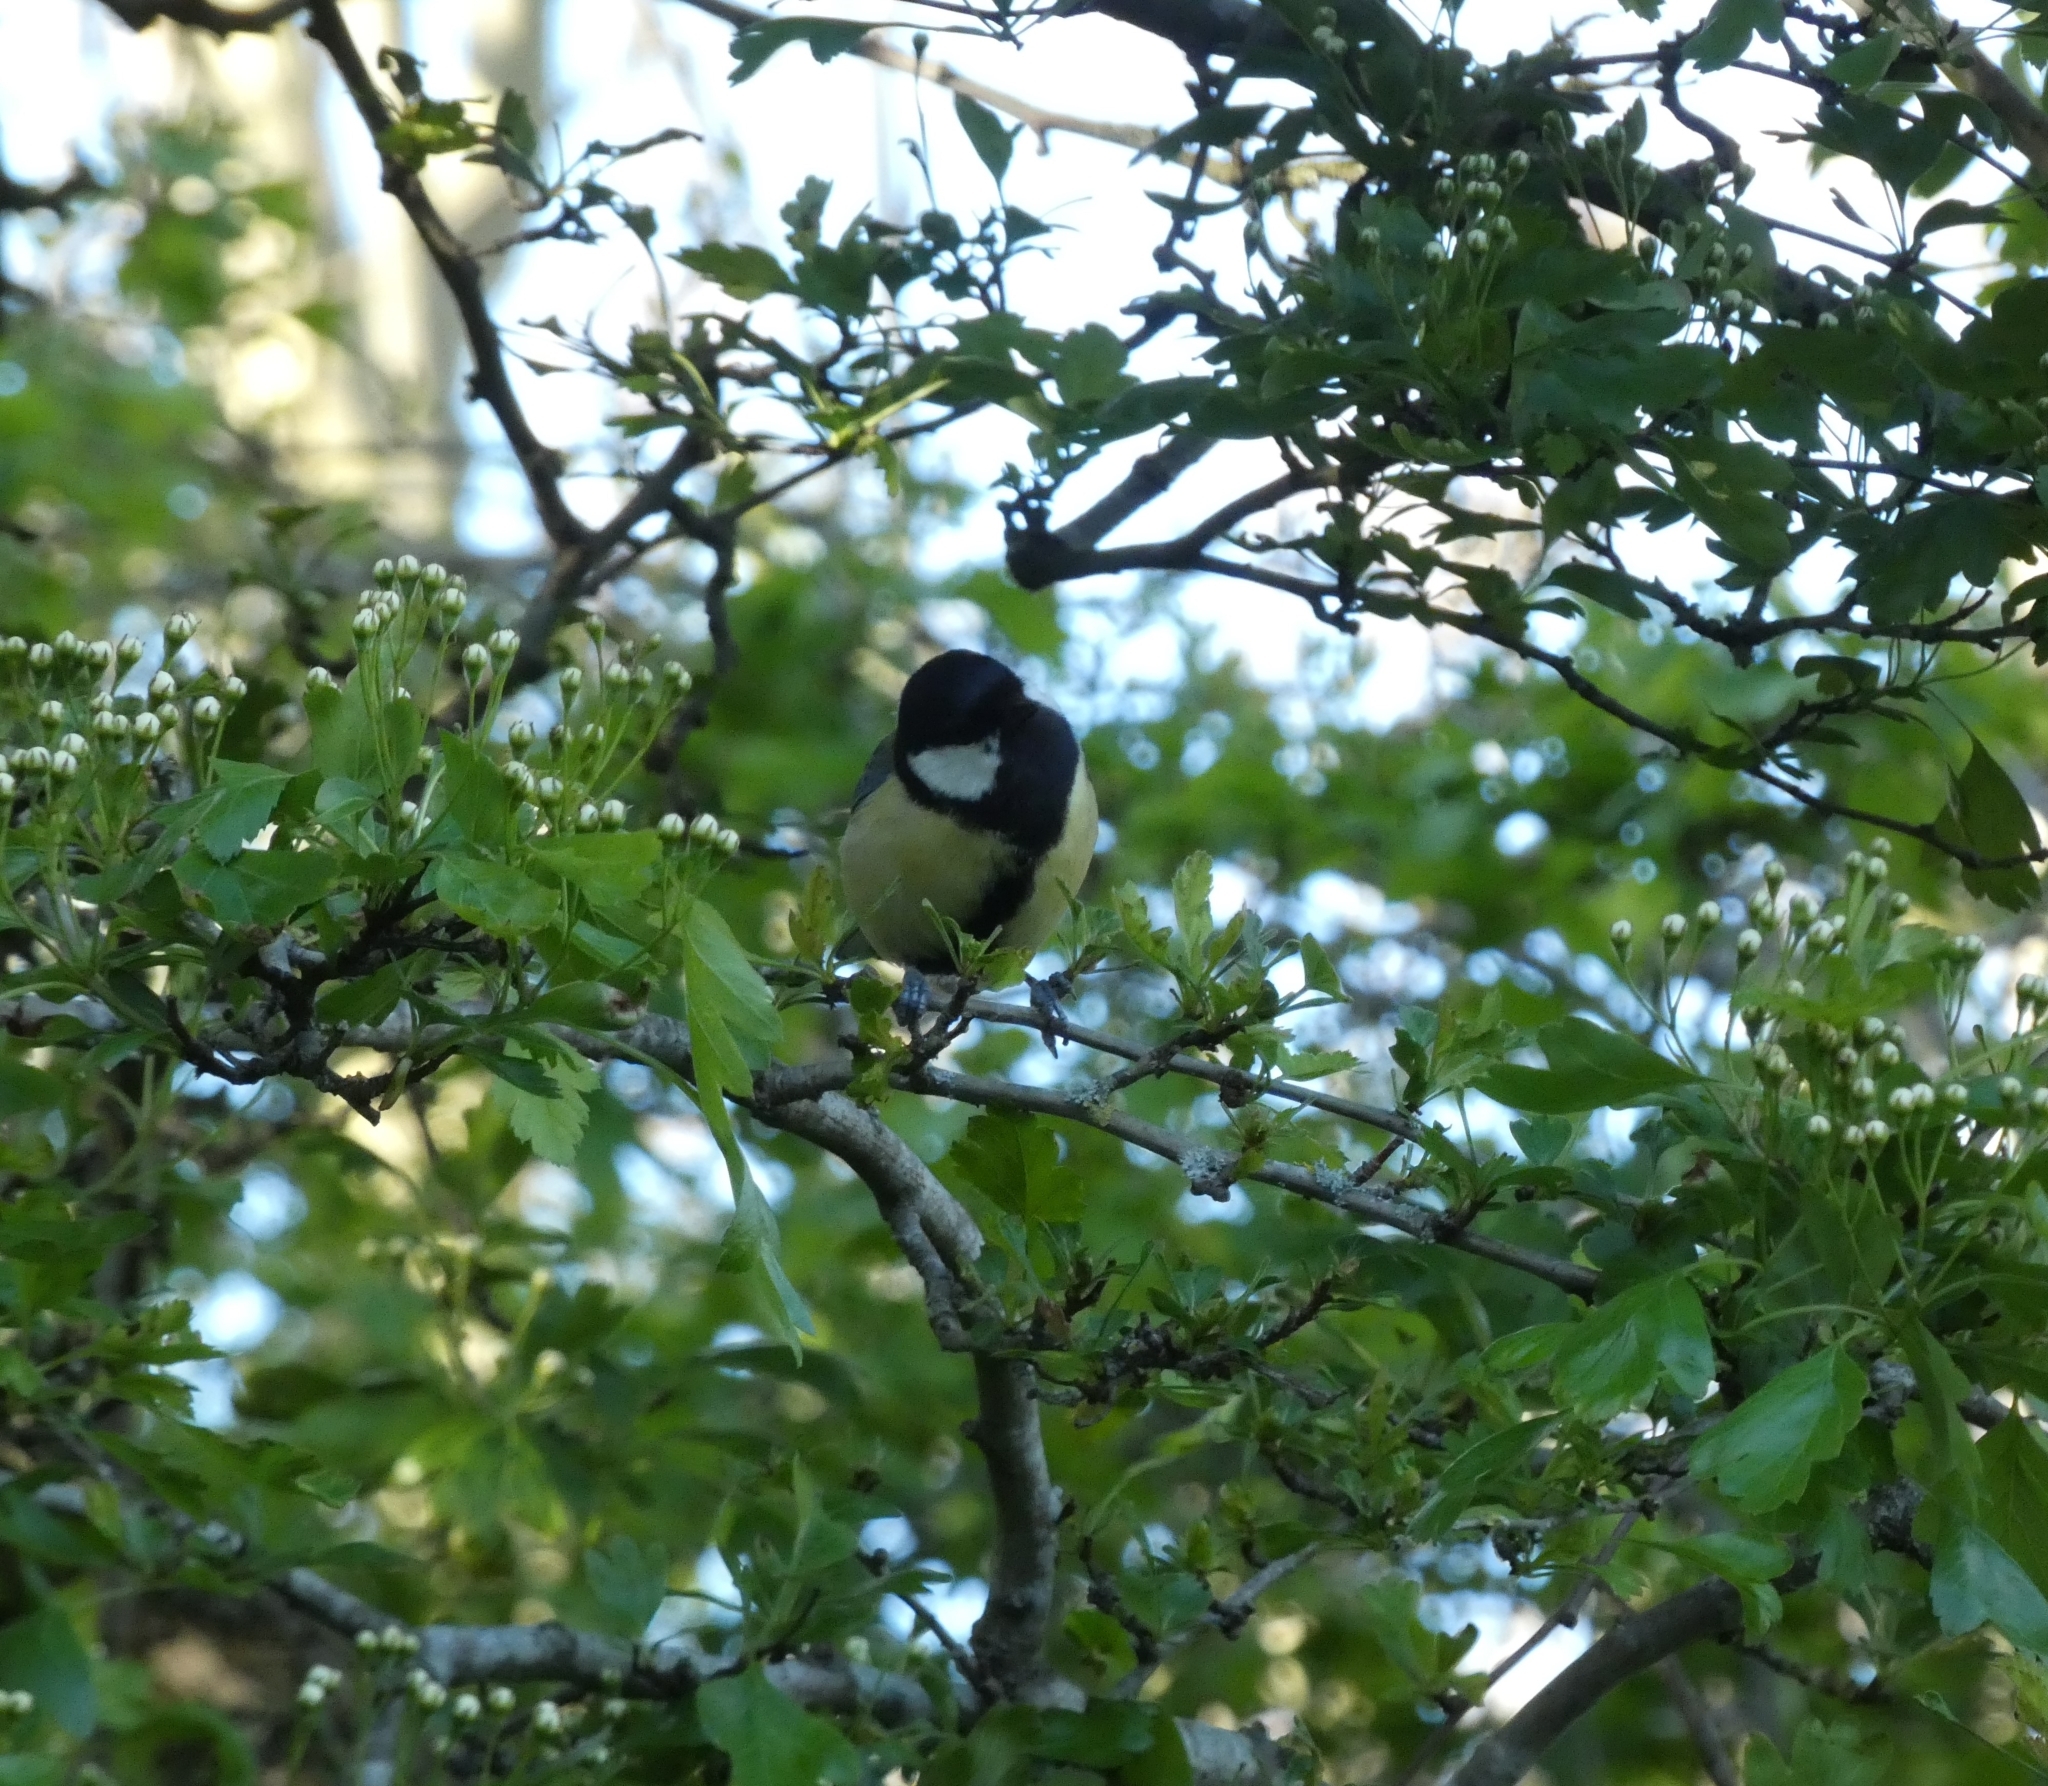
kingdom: Animalia
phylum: Chordata
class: Aves
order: Passeriformes
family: Paridae
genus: Parus
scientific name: Parus major
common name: Great tit
